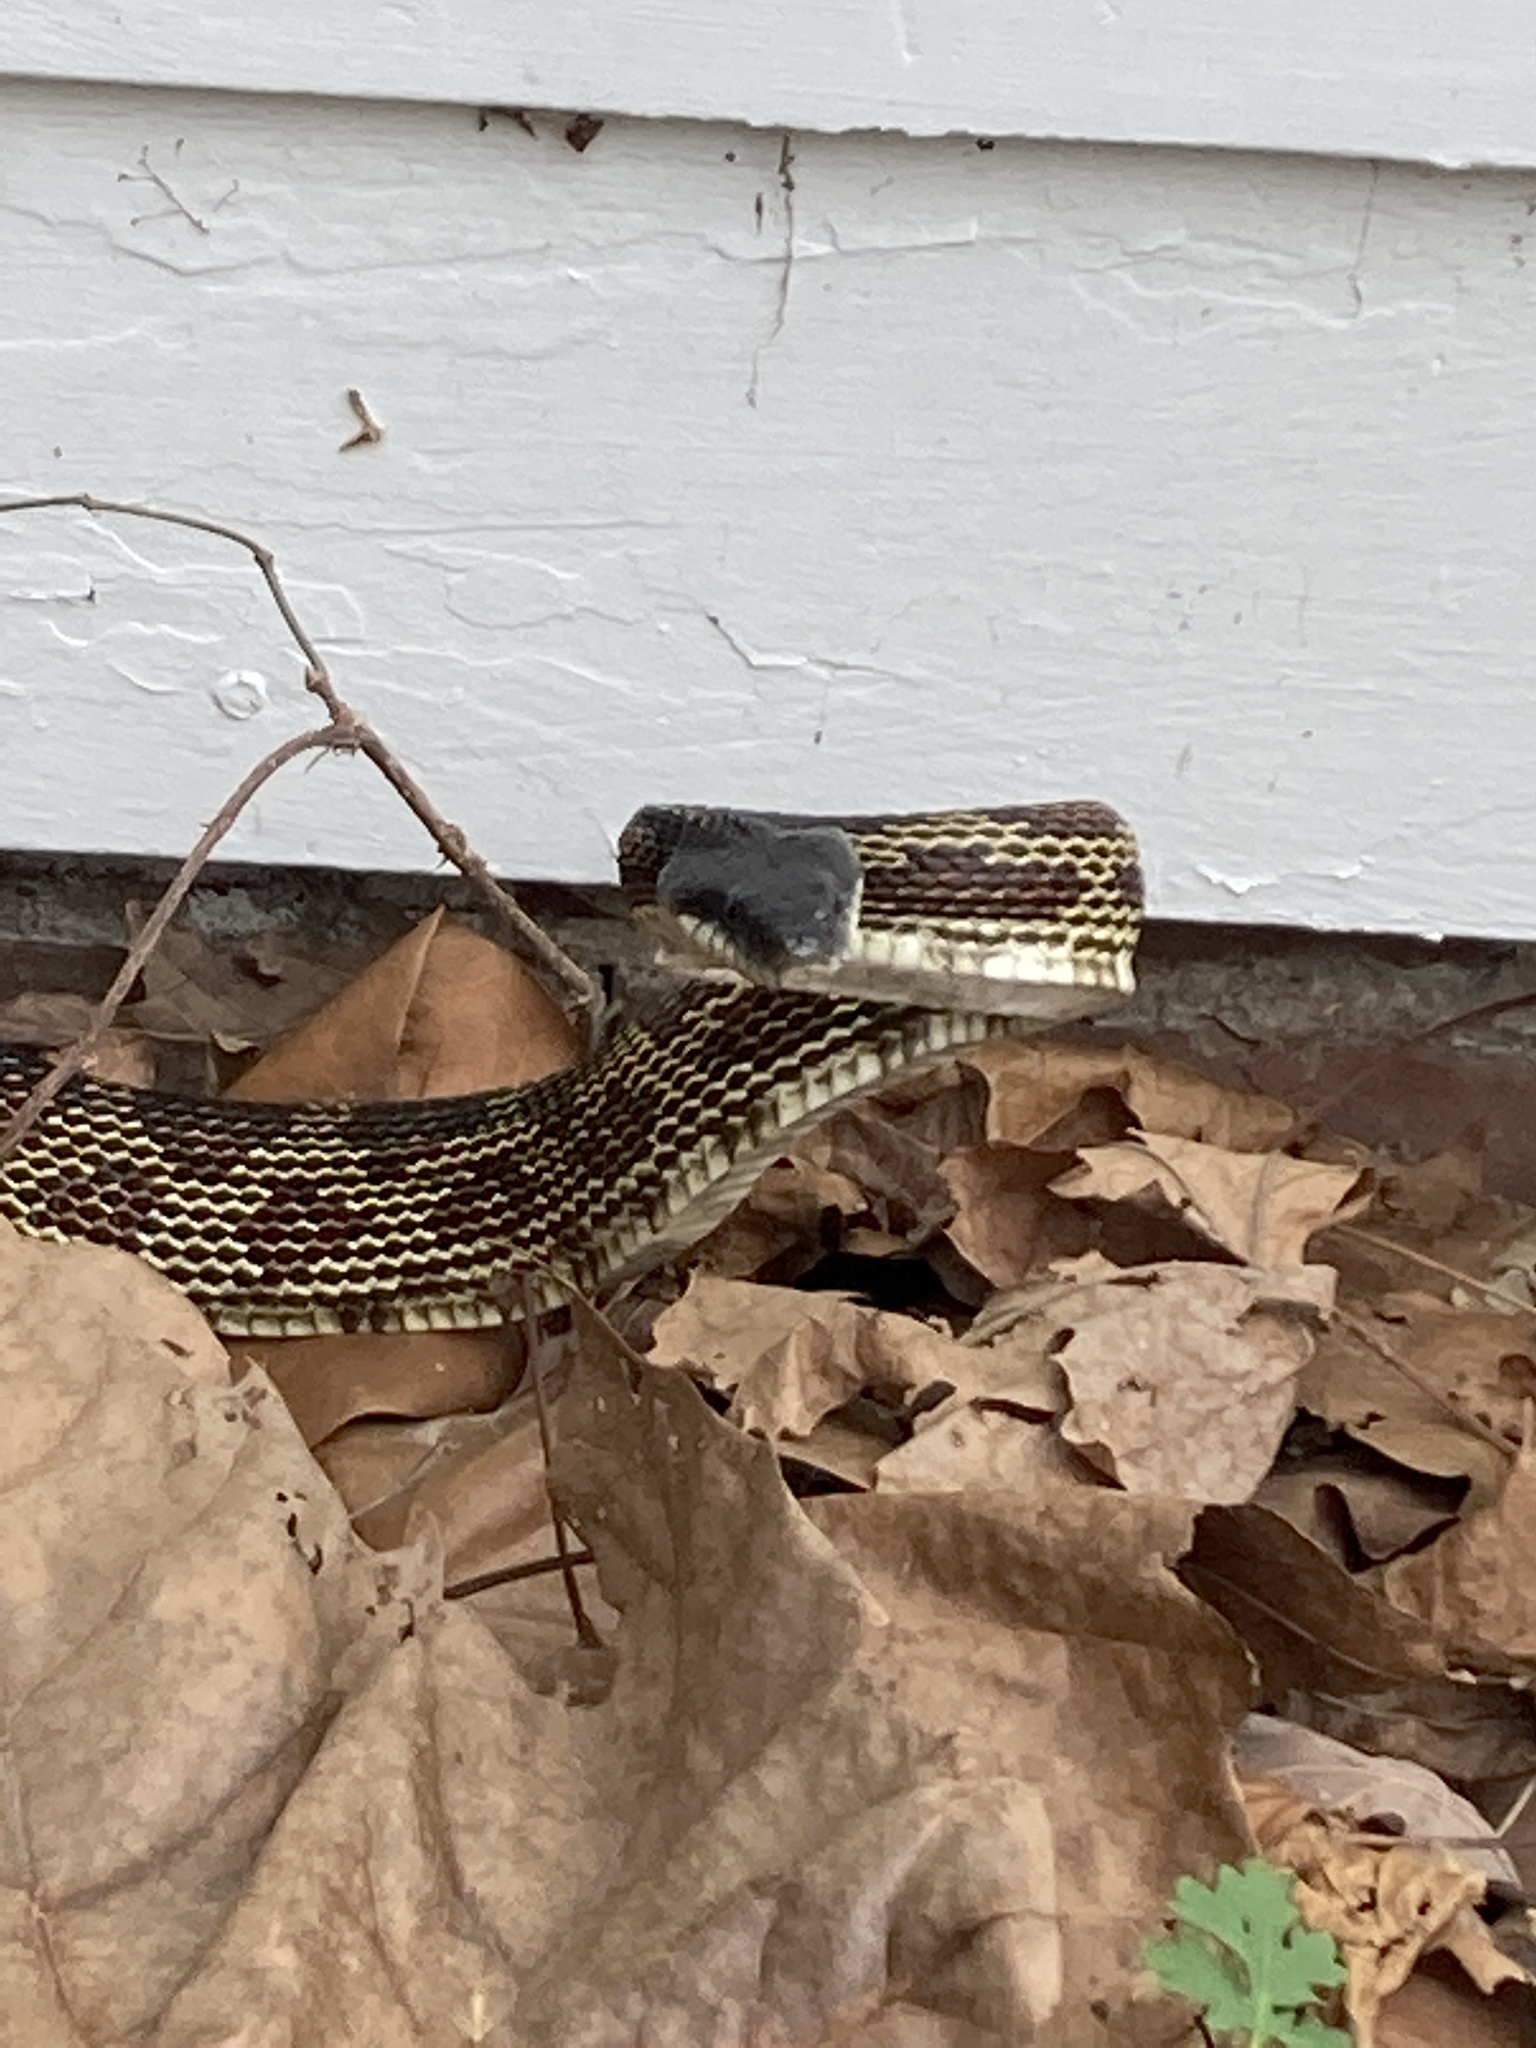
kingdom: Animalia
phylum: Chordata
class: Squamata
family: Colubridae
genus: Pantherophis
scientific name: Pantherophis spiloides
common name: Gray rat snake
